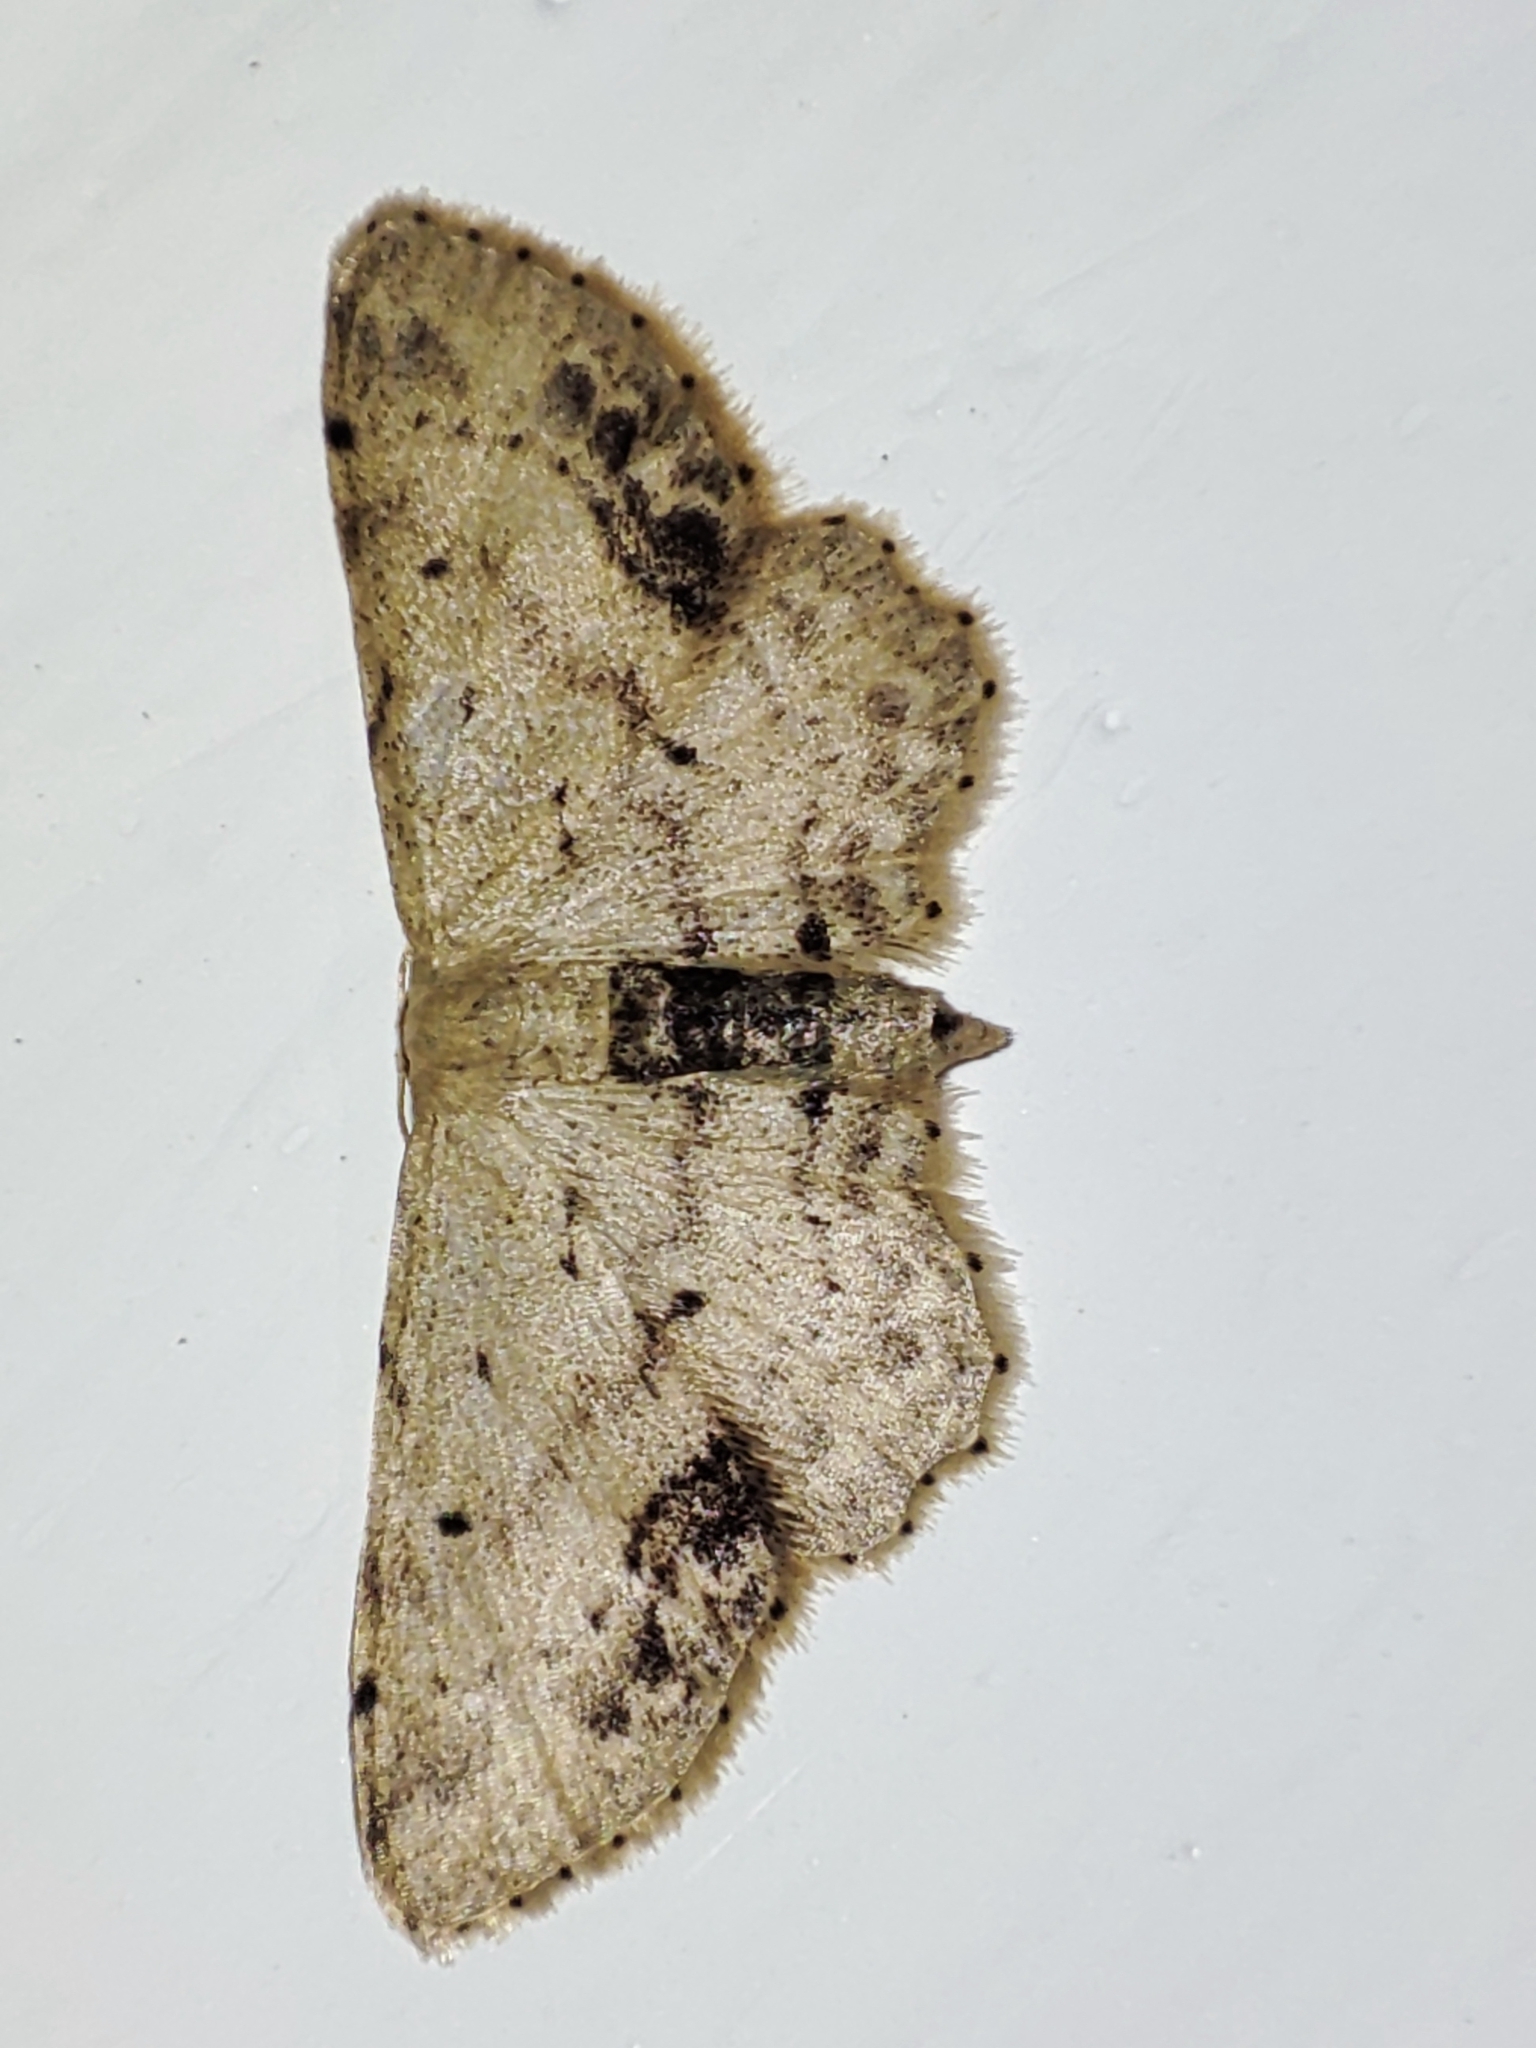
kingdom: Animalia
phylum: Arthropoda
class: Insecta
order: Lepidoptera
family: Geometridae
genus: Idaea
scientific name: Idaea dimidiata
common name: Single-dotted wave
